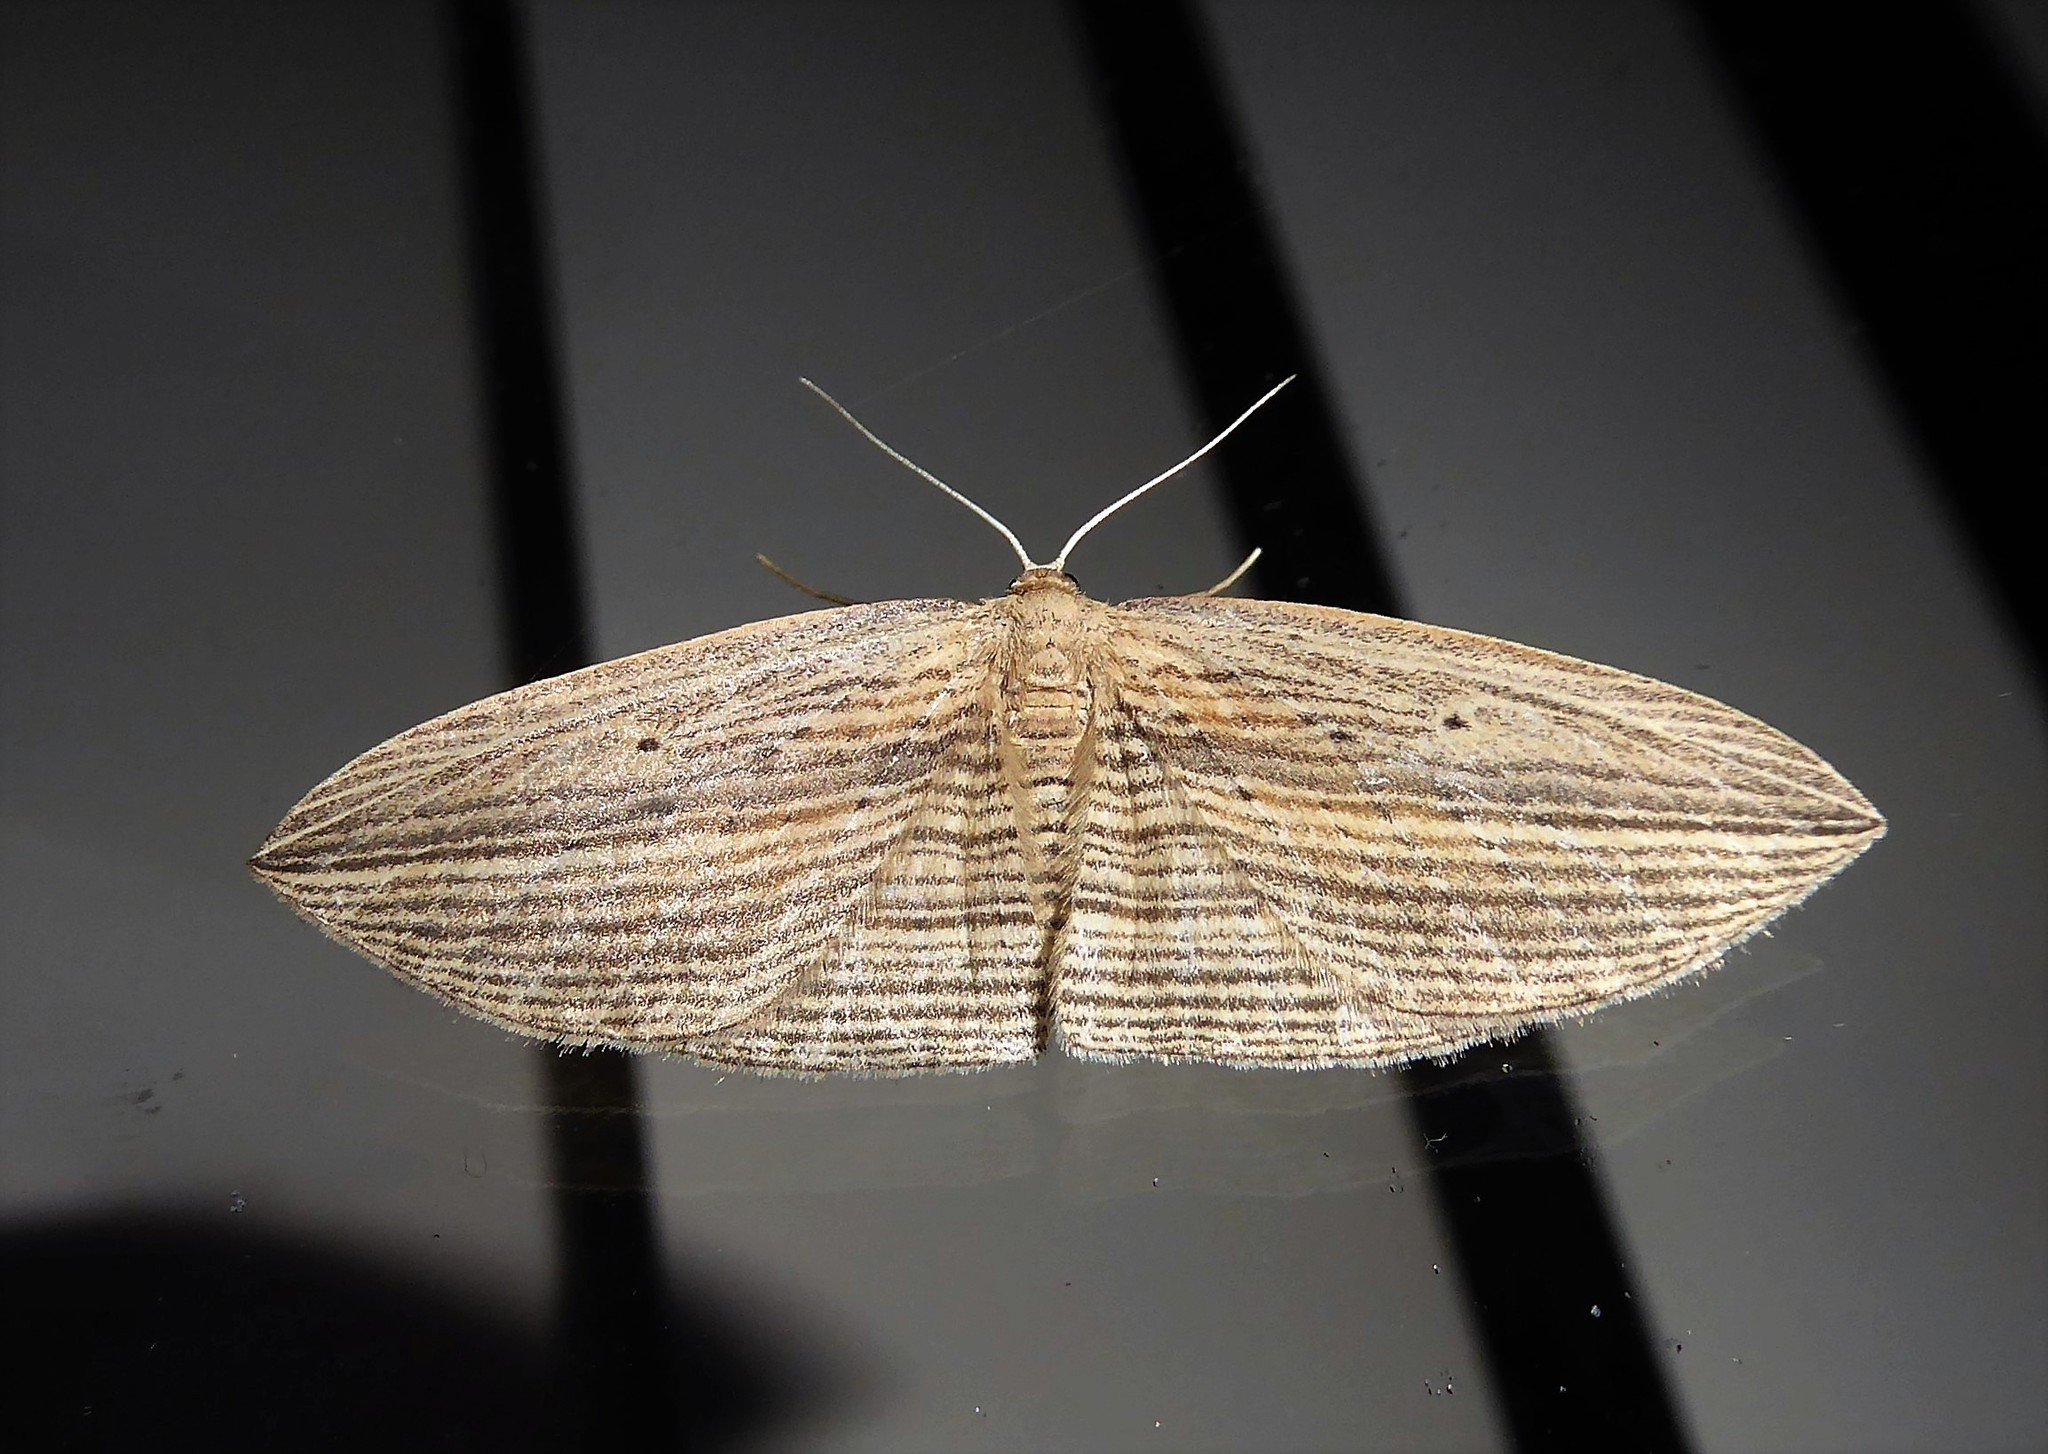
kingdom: Animalia
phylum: Arthropoda
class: Insecta
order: Lepidoptera
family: Geometridae
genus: Epiphryne
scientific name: Epiphryne verriculata
